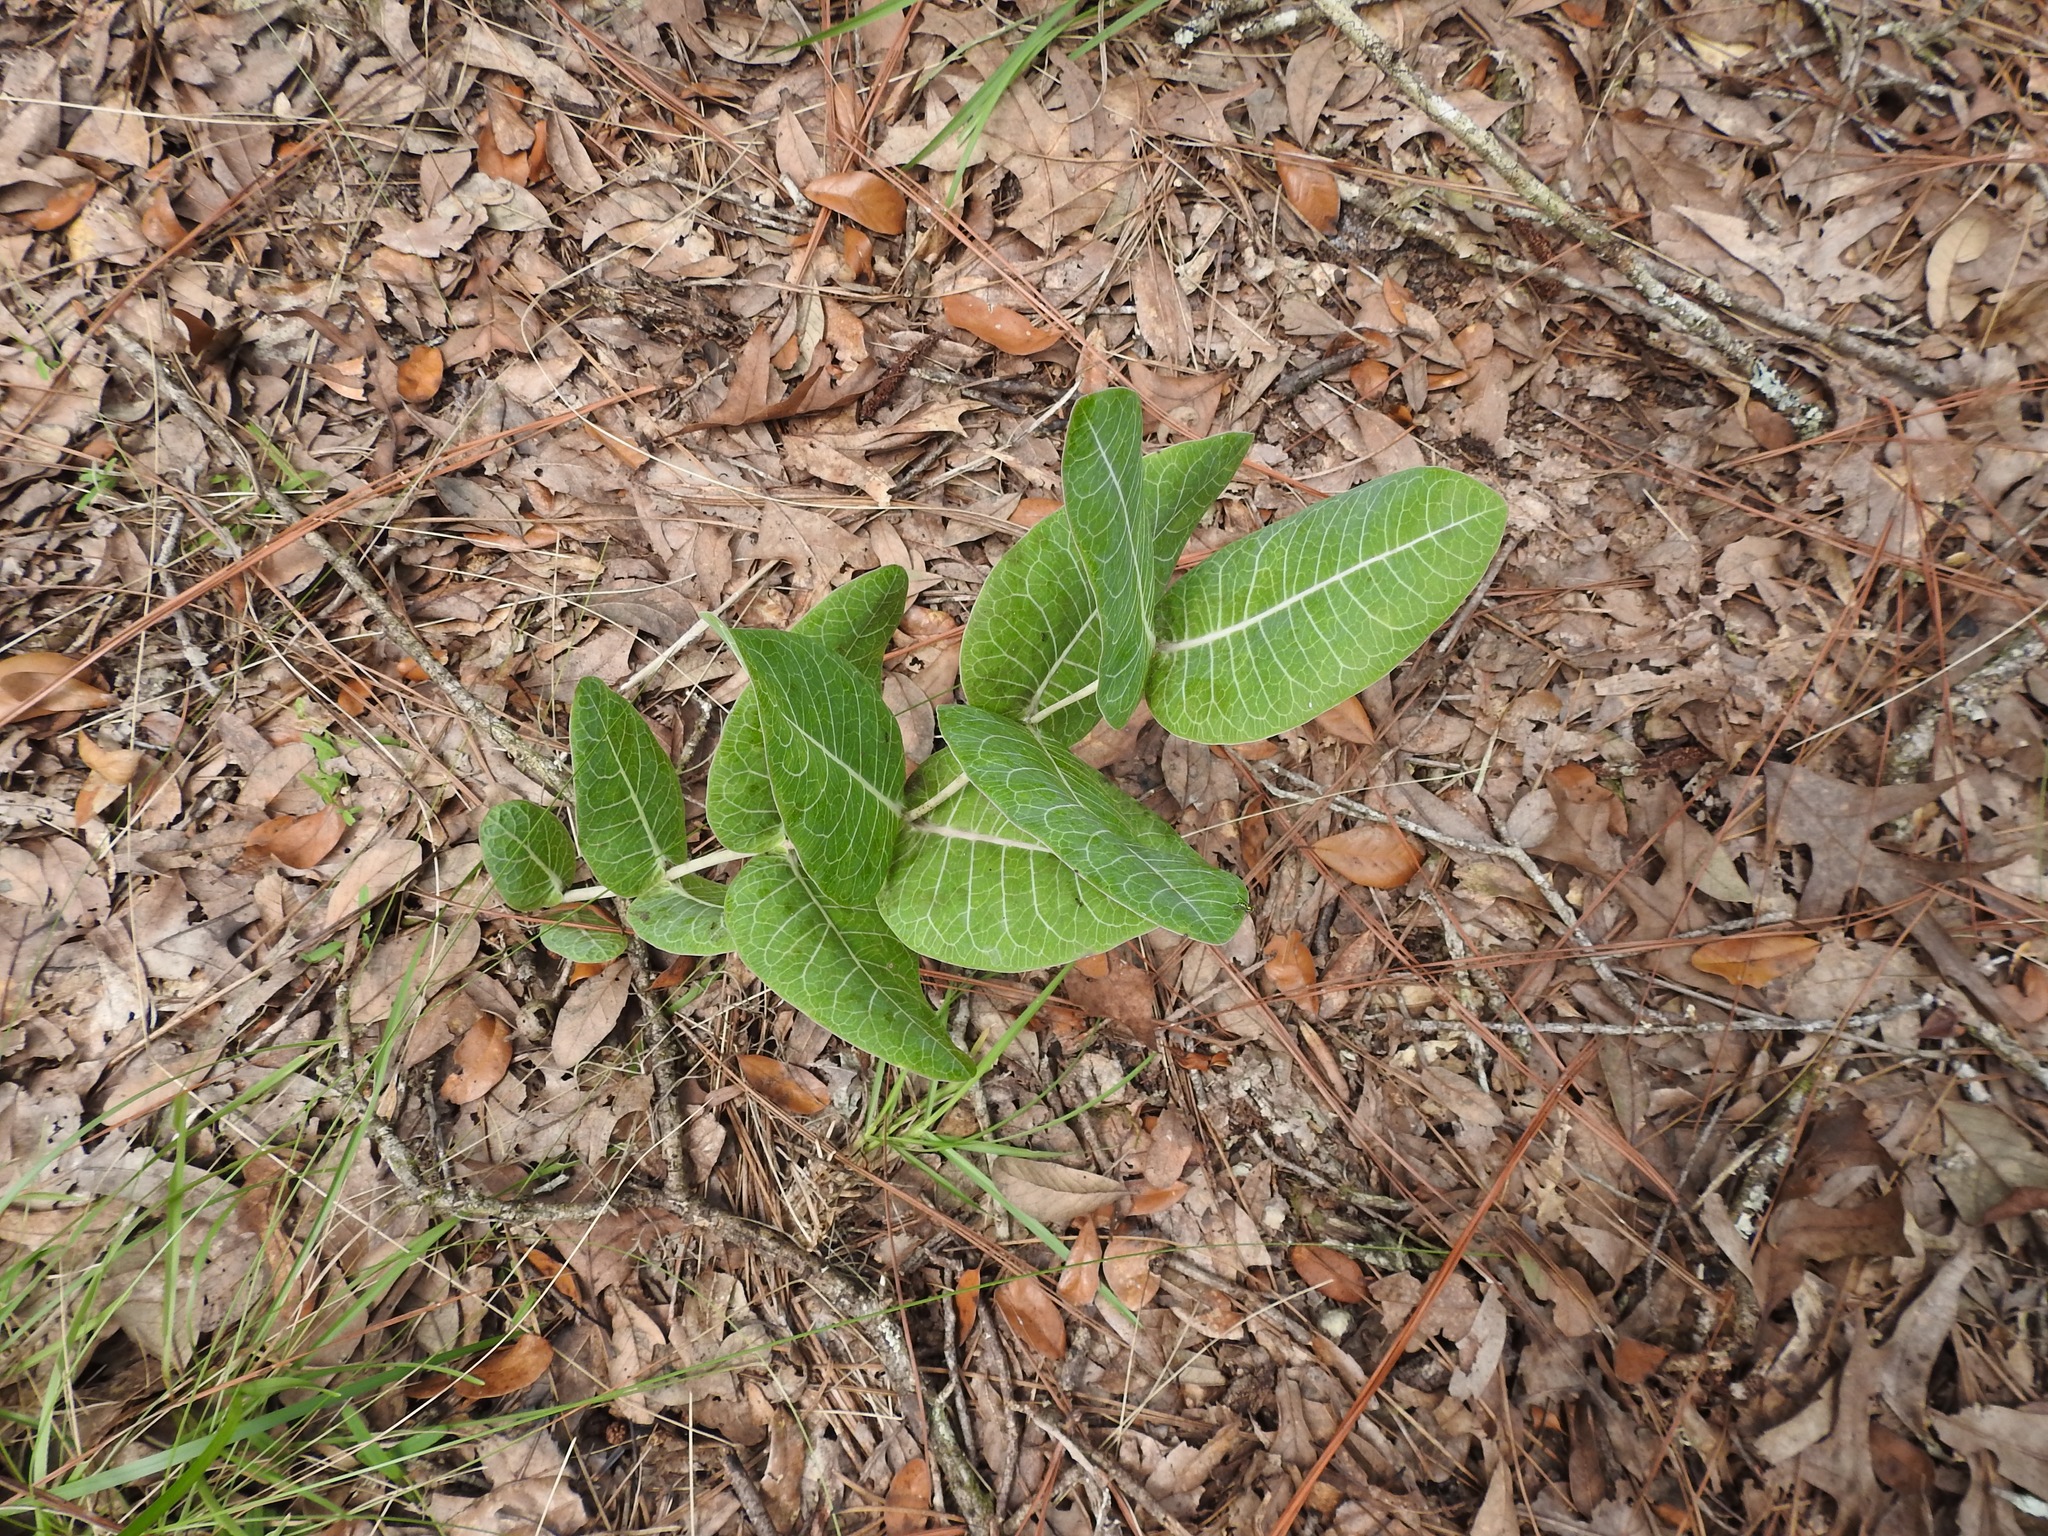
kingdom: Plantae
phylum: Tracheophyta
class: Magnoliopsida
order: Gentianales
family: Apocynaceae
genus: Asclepias
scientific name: Asclepias humistrata
